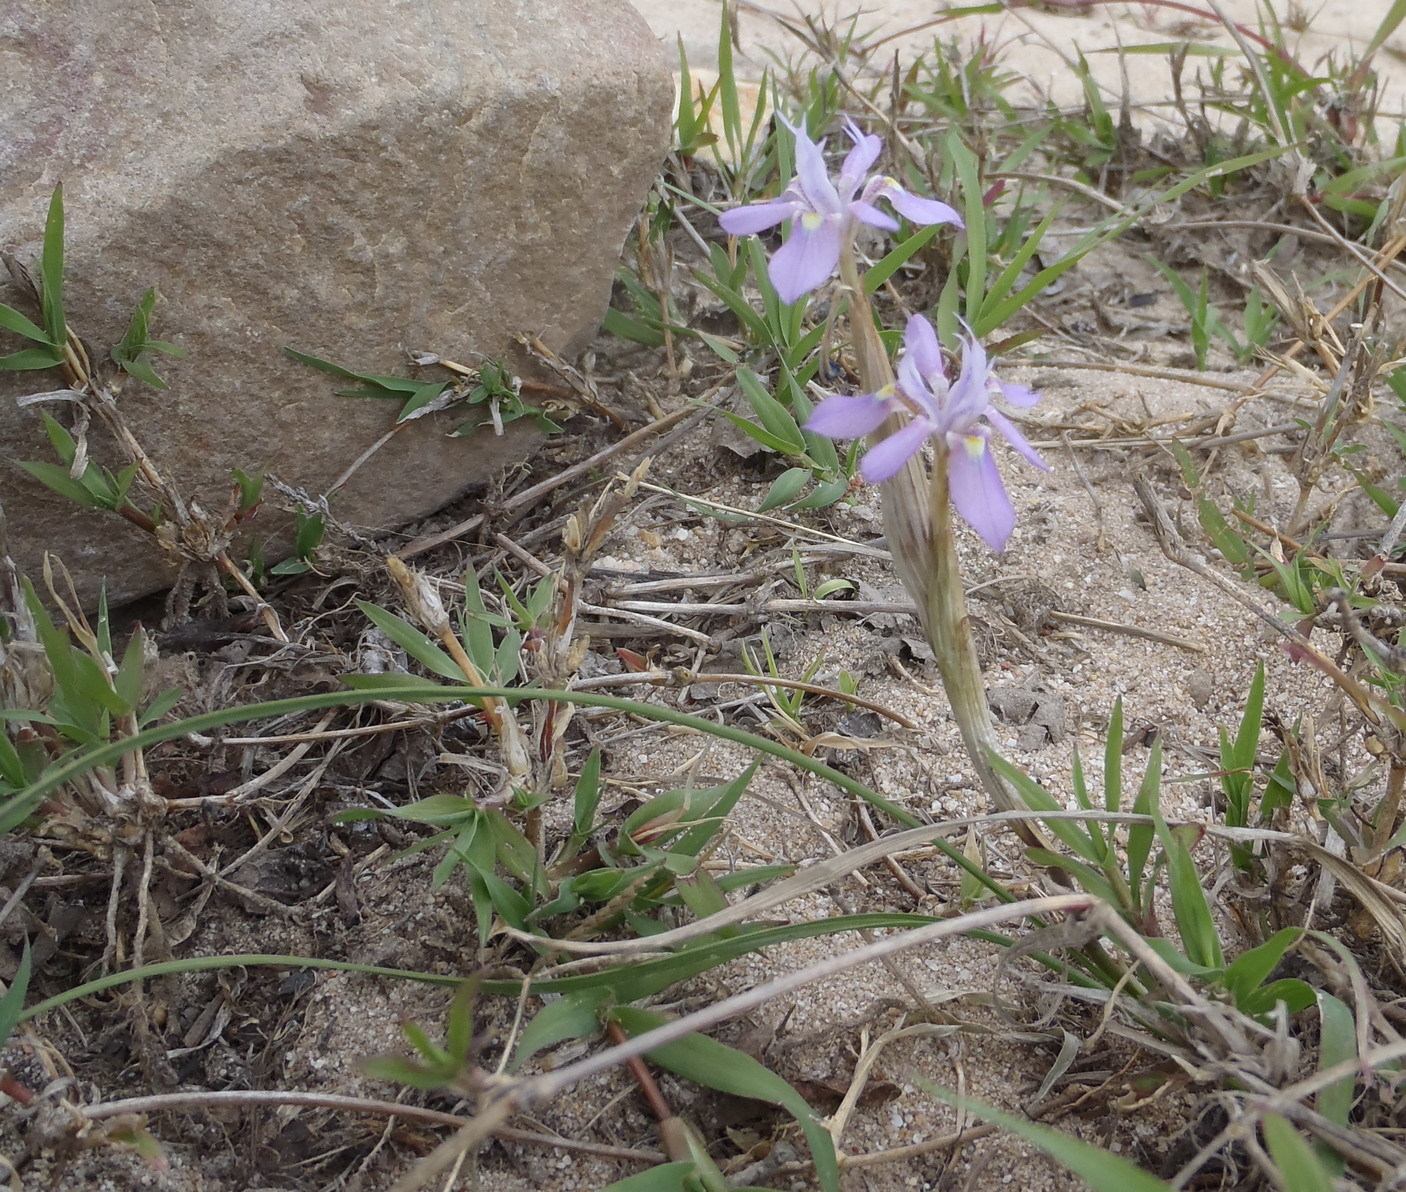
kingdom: Plantae
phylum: Tracheophyta
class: Liliopsida
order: Asparagales
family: Iridaceae
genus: Moraea
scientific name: Moraea setifolia
